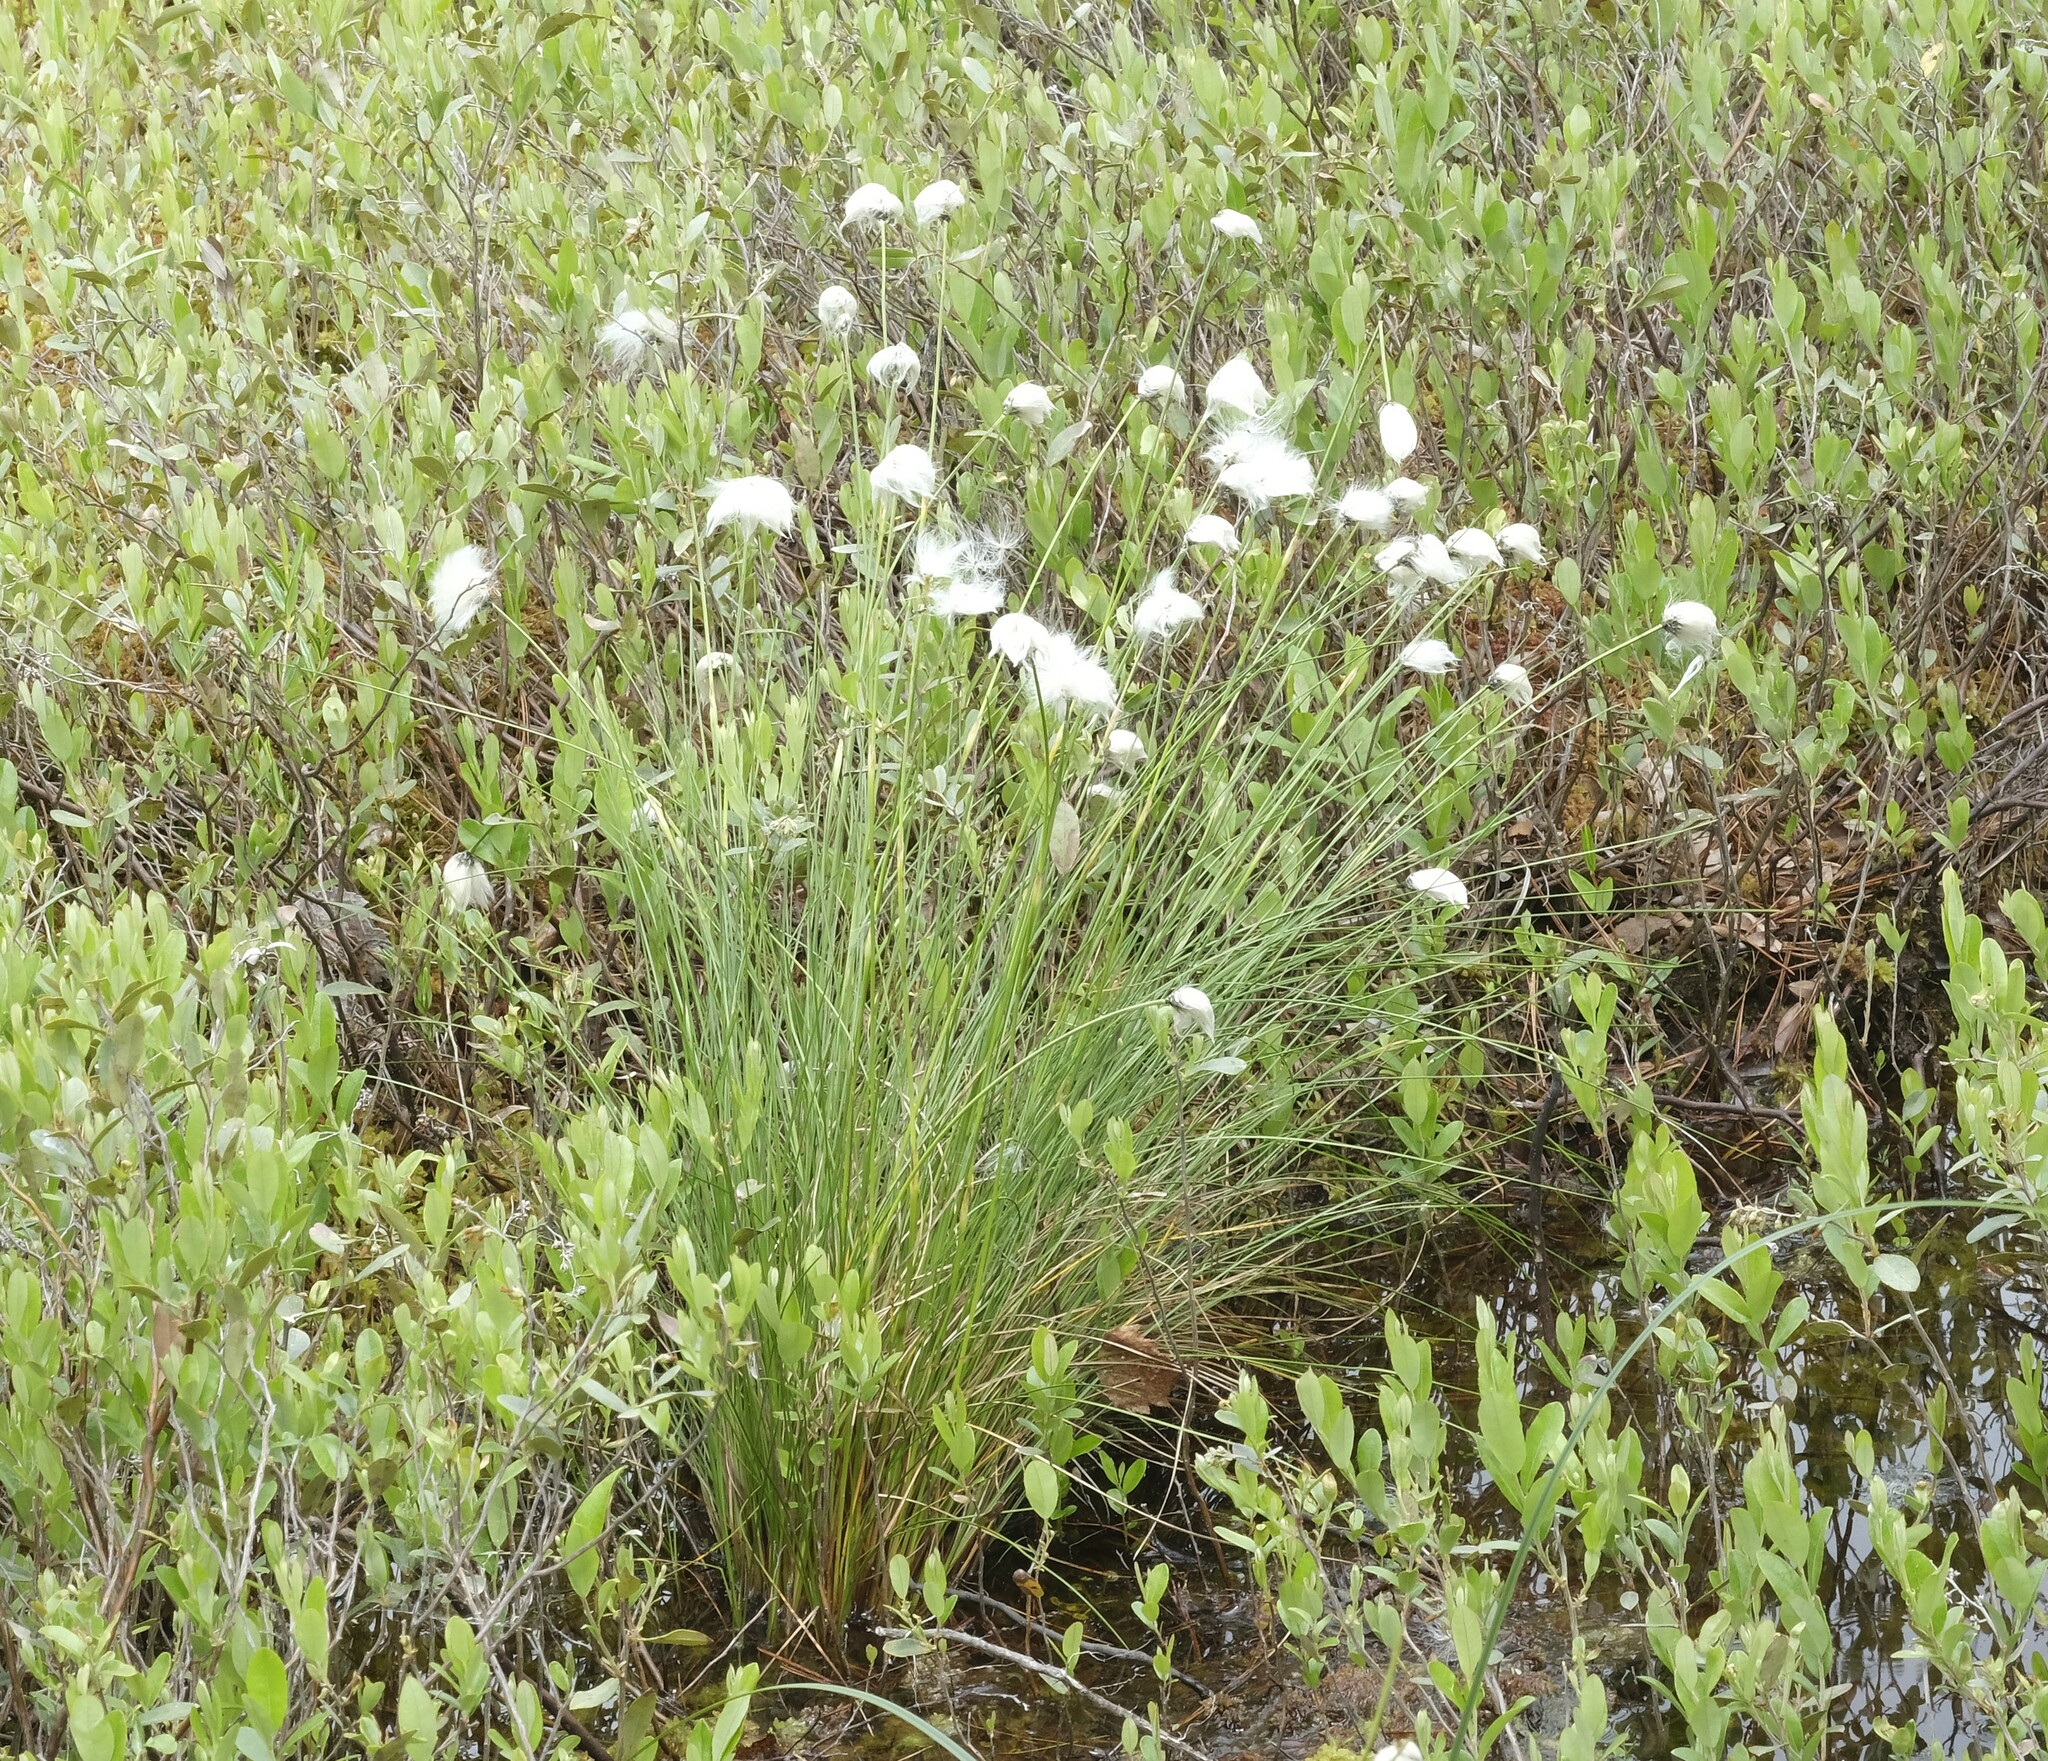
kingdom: Plantae
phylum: Tracheophyta
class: Liliopsida
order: Poales
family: Cyperaceae
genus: Eriophorum
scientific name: Eriophorum angustifolium
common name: Common cottongrass
